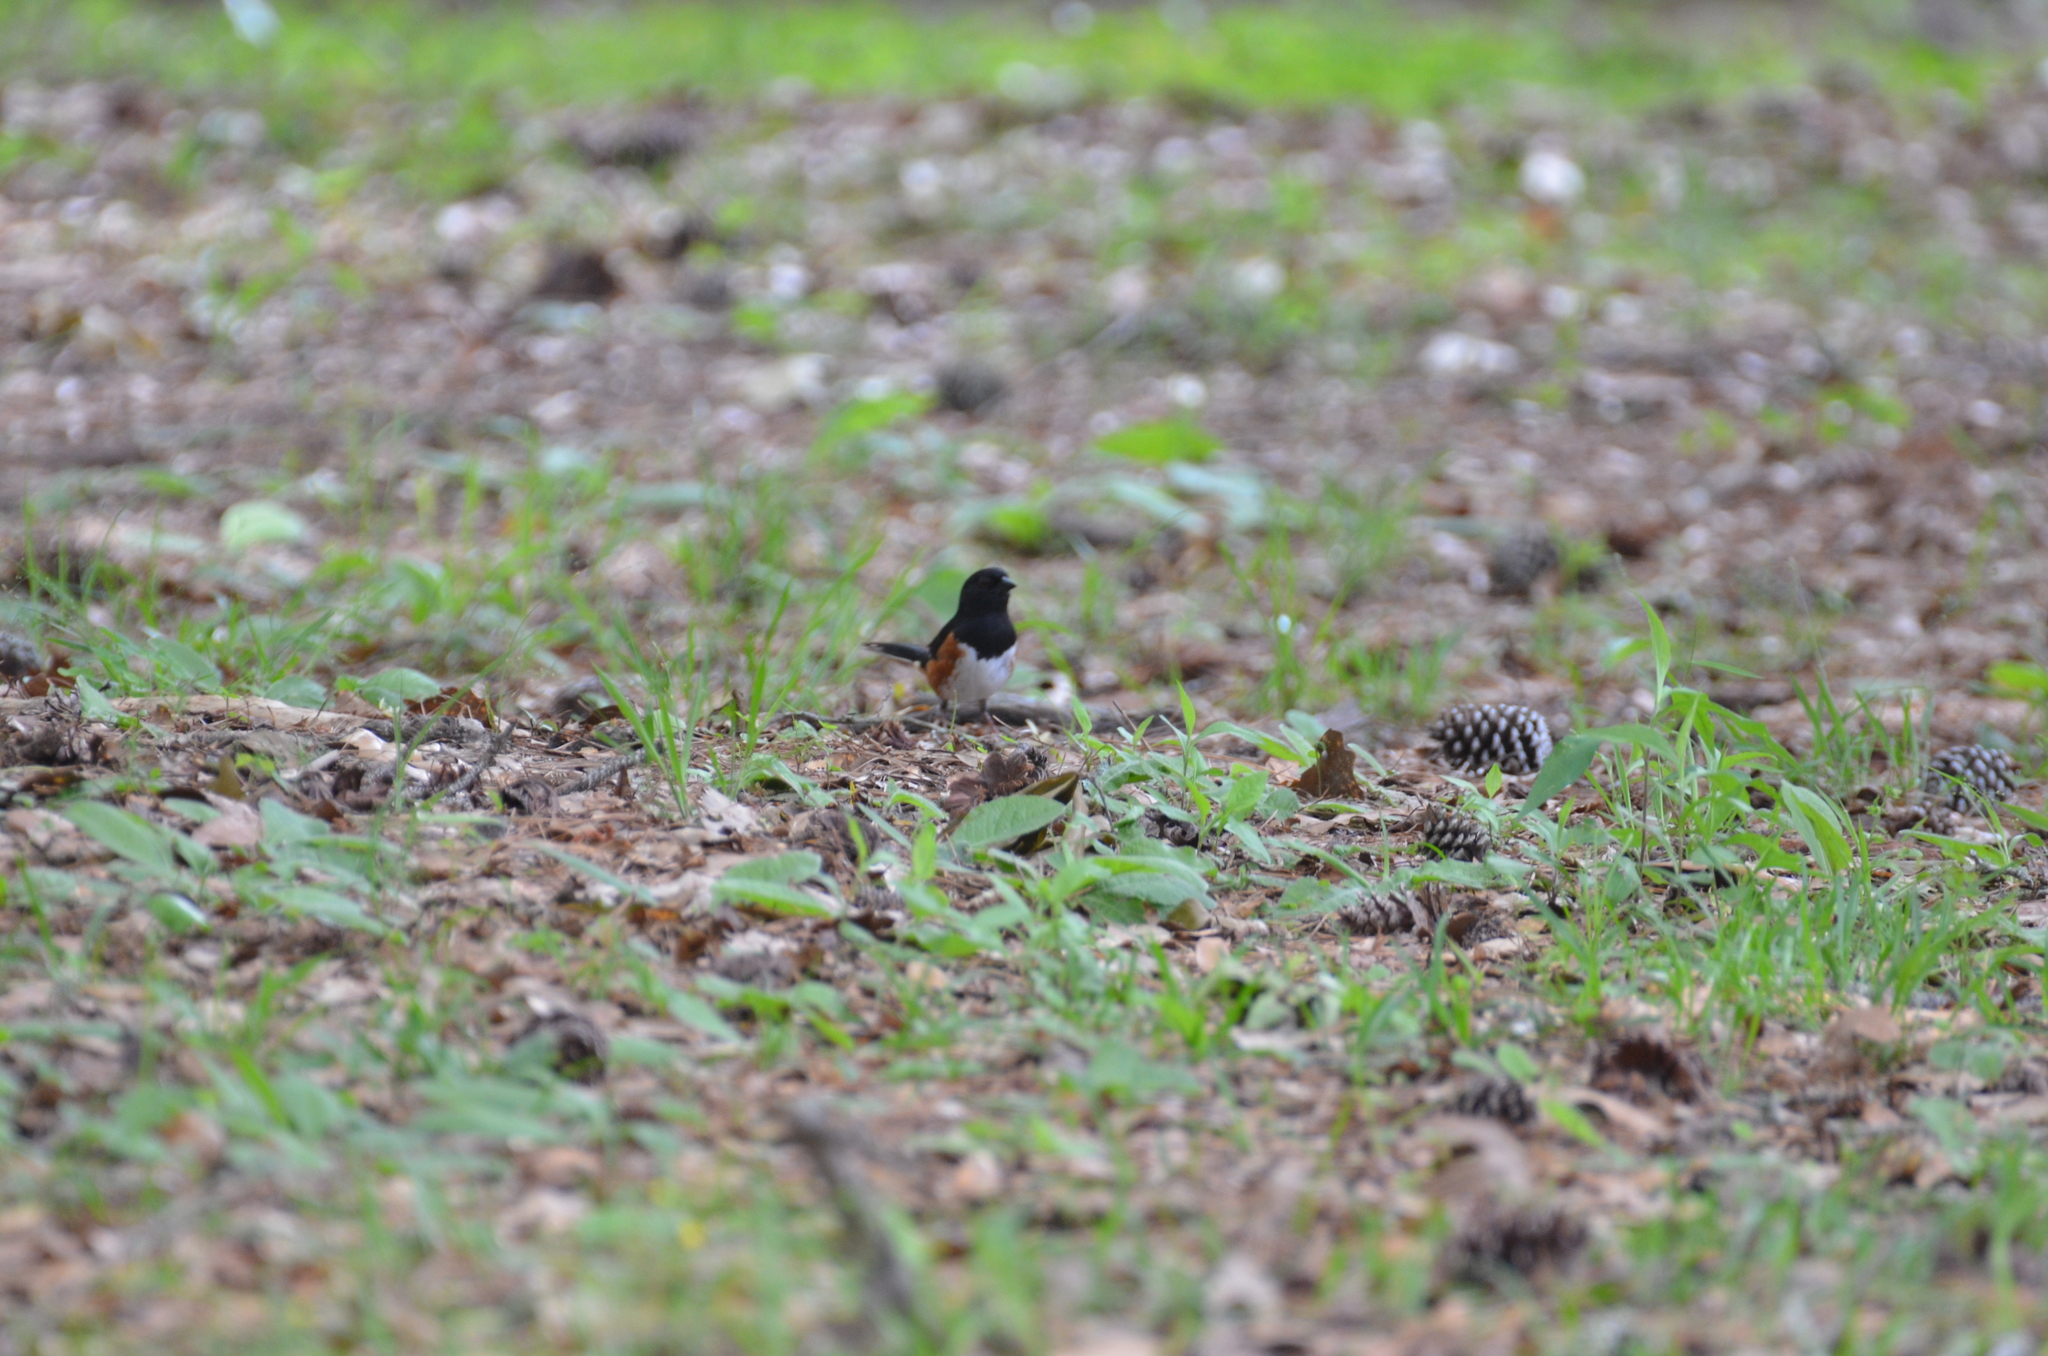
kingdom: Animalia
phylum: Chordata
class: Aves
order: Passeriformes
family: Passerellidae
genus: Pipilo
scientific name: Pipilo erythrophthalmus
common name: Eastern towhee
